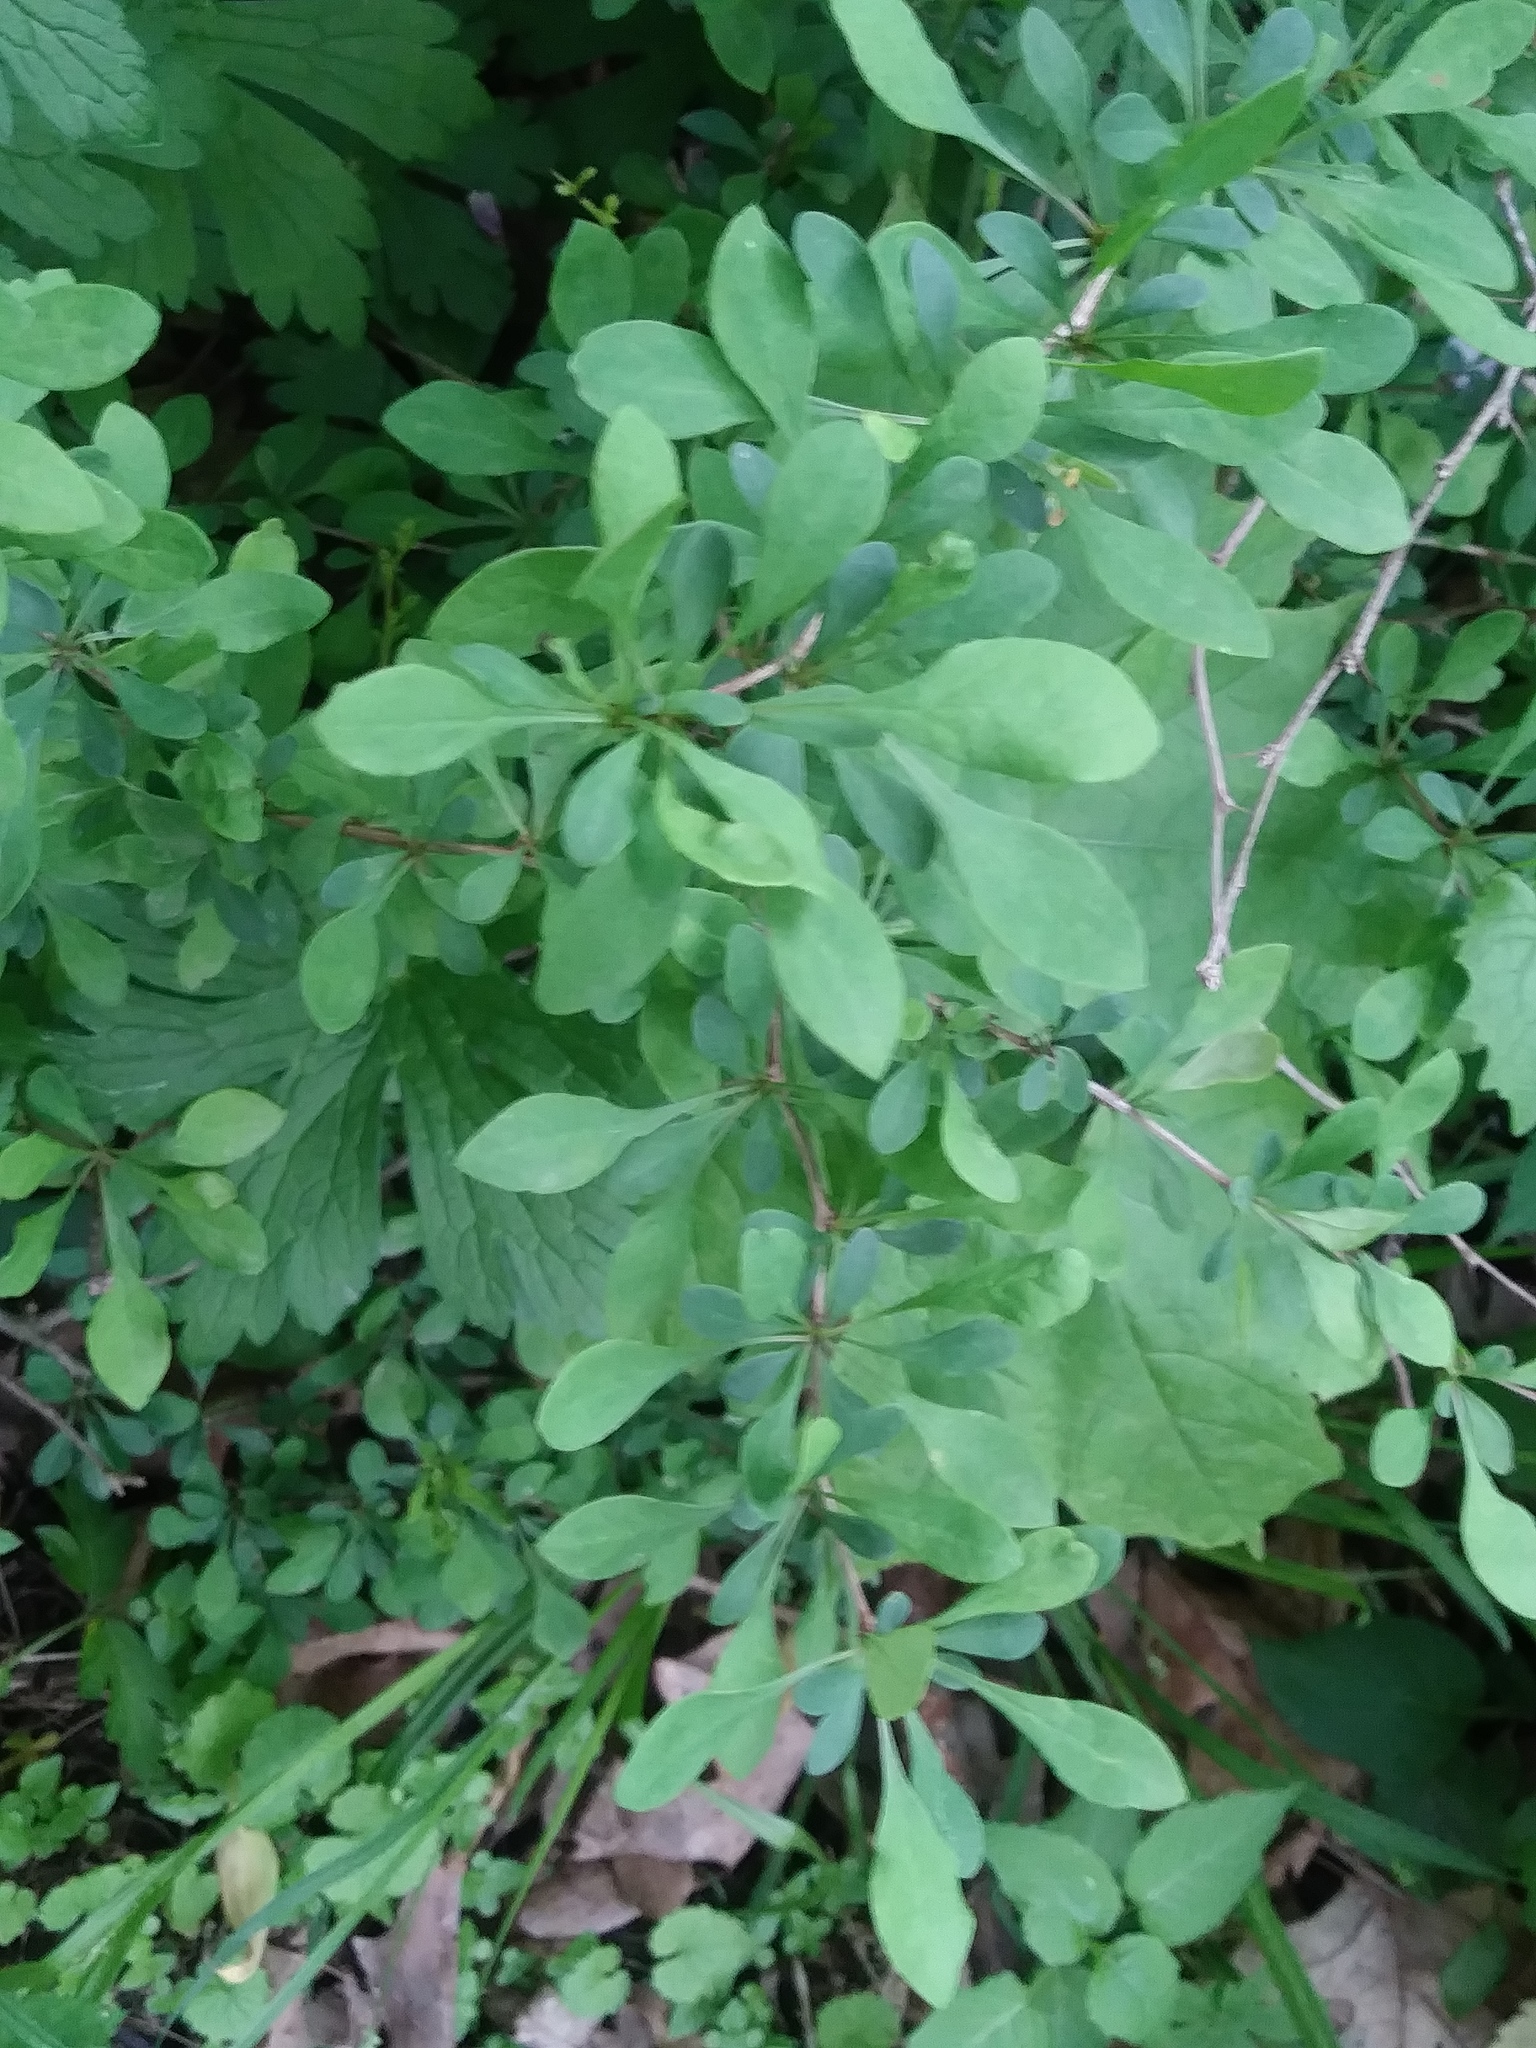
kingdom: Plantae
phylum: Tracheophyta
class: Magnoliopsida
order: Ranunculales
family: Berberidaceae
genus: Berberis
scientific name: Berberis thunbergii
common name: Japanese barberry
